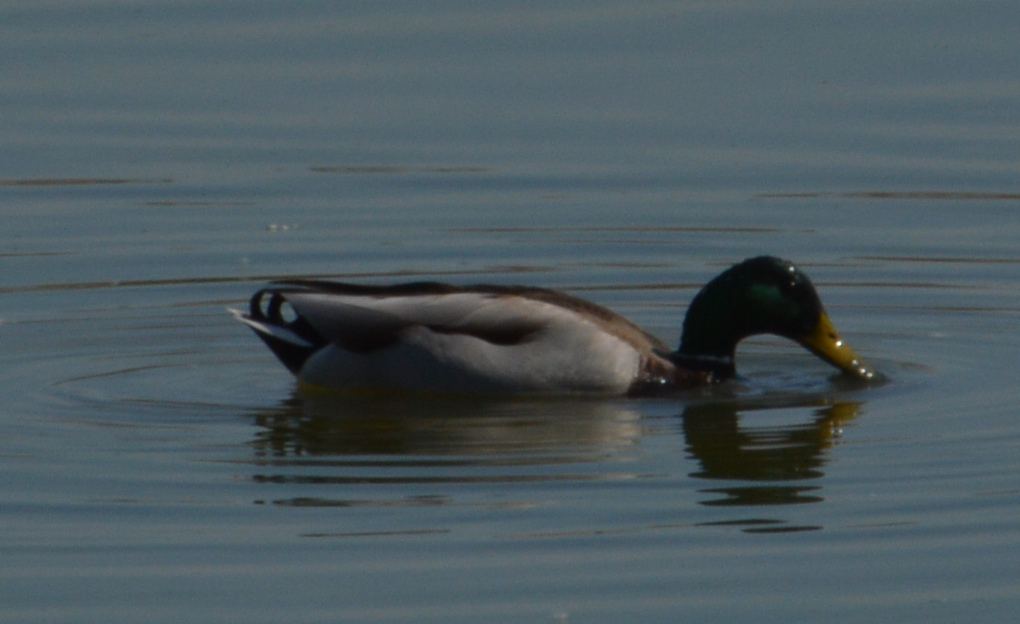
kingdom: Animalia
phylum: Chordata
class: Aves
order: Anseriformes
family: Anatidae
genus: Anas
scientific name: Anas platyrhynchos
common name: Mallard
